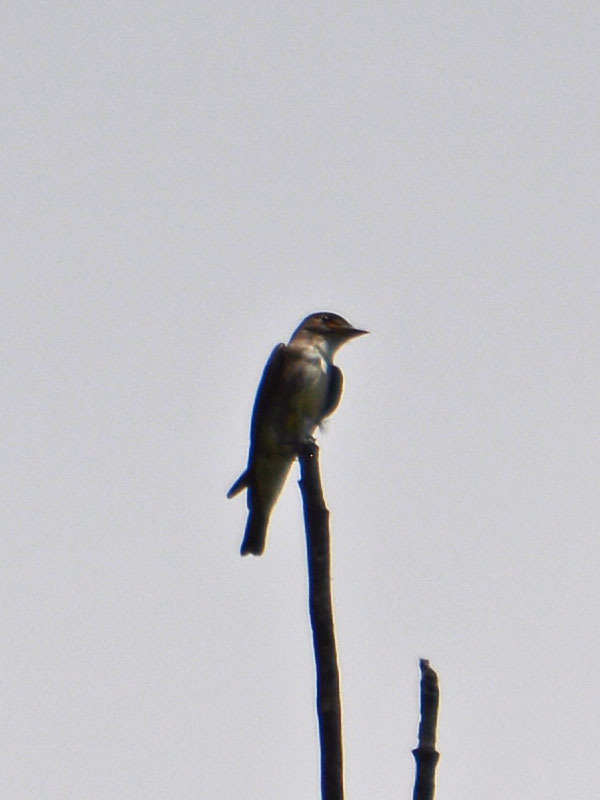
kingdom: Animalia
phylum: Chordata
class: Aves
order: Passeriformes
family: Tyrannidae
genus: Contopus
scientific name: Contopus cooperi
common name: Olive-sided flycatcher
